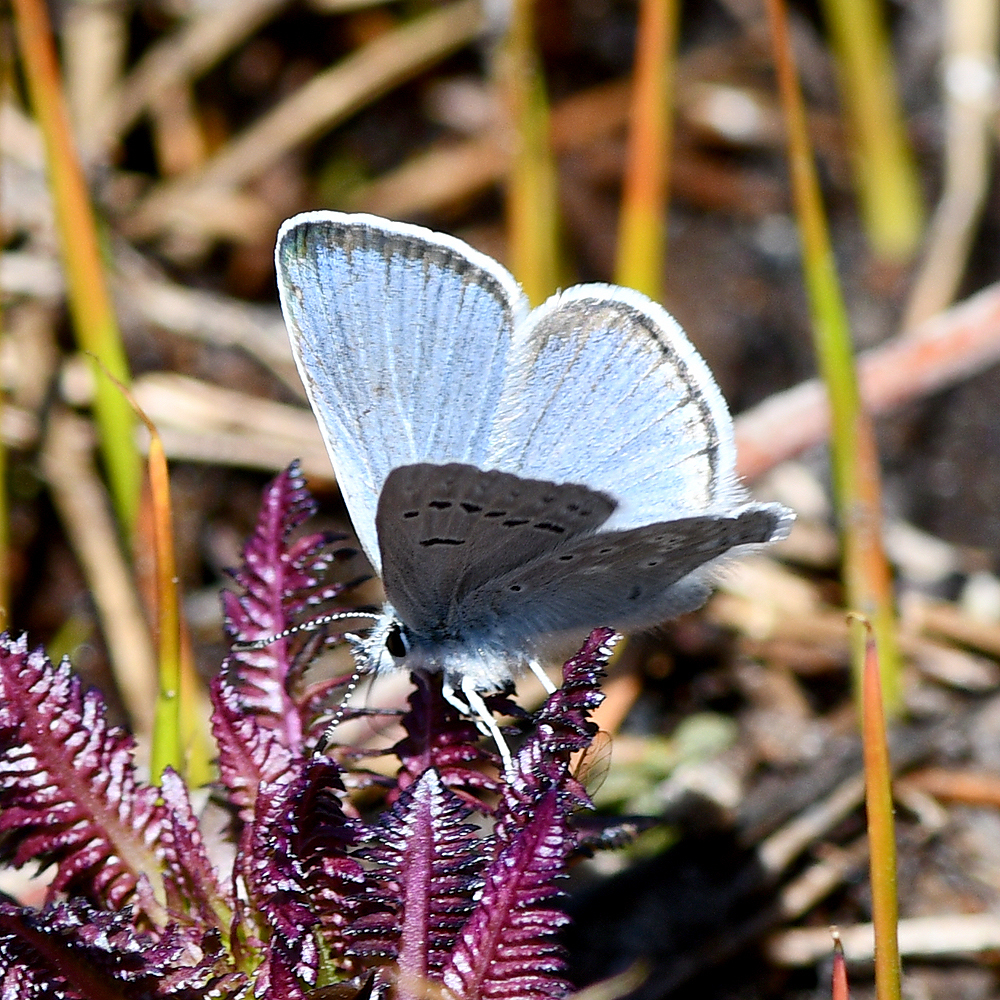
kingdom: Animalia
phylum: Arthropoda
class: Insecta
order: Lepidoptera
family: Lycaenidae
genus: Icaricia
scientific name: Icaricia icarioides
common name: Boisduval's blue
